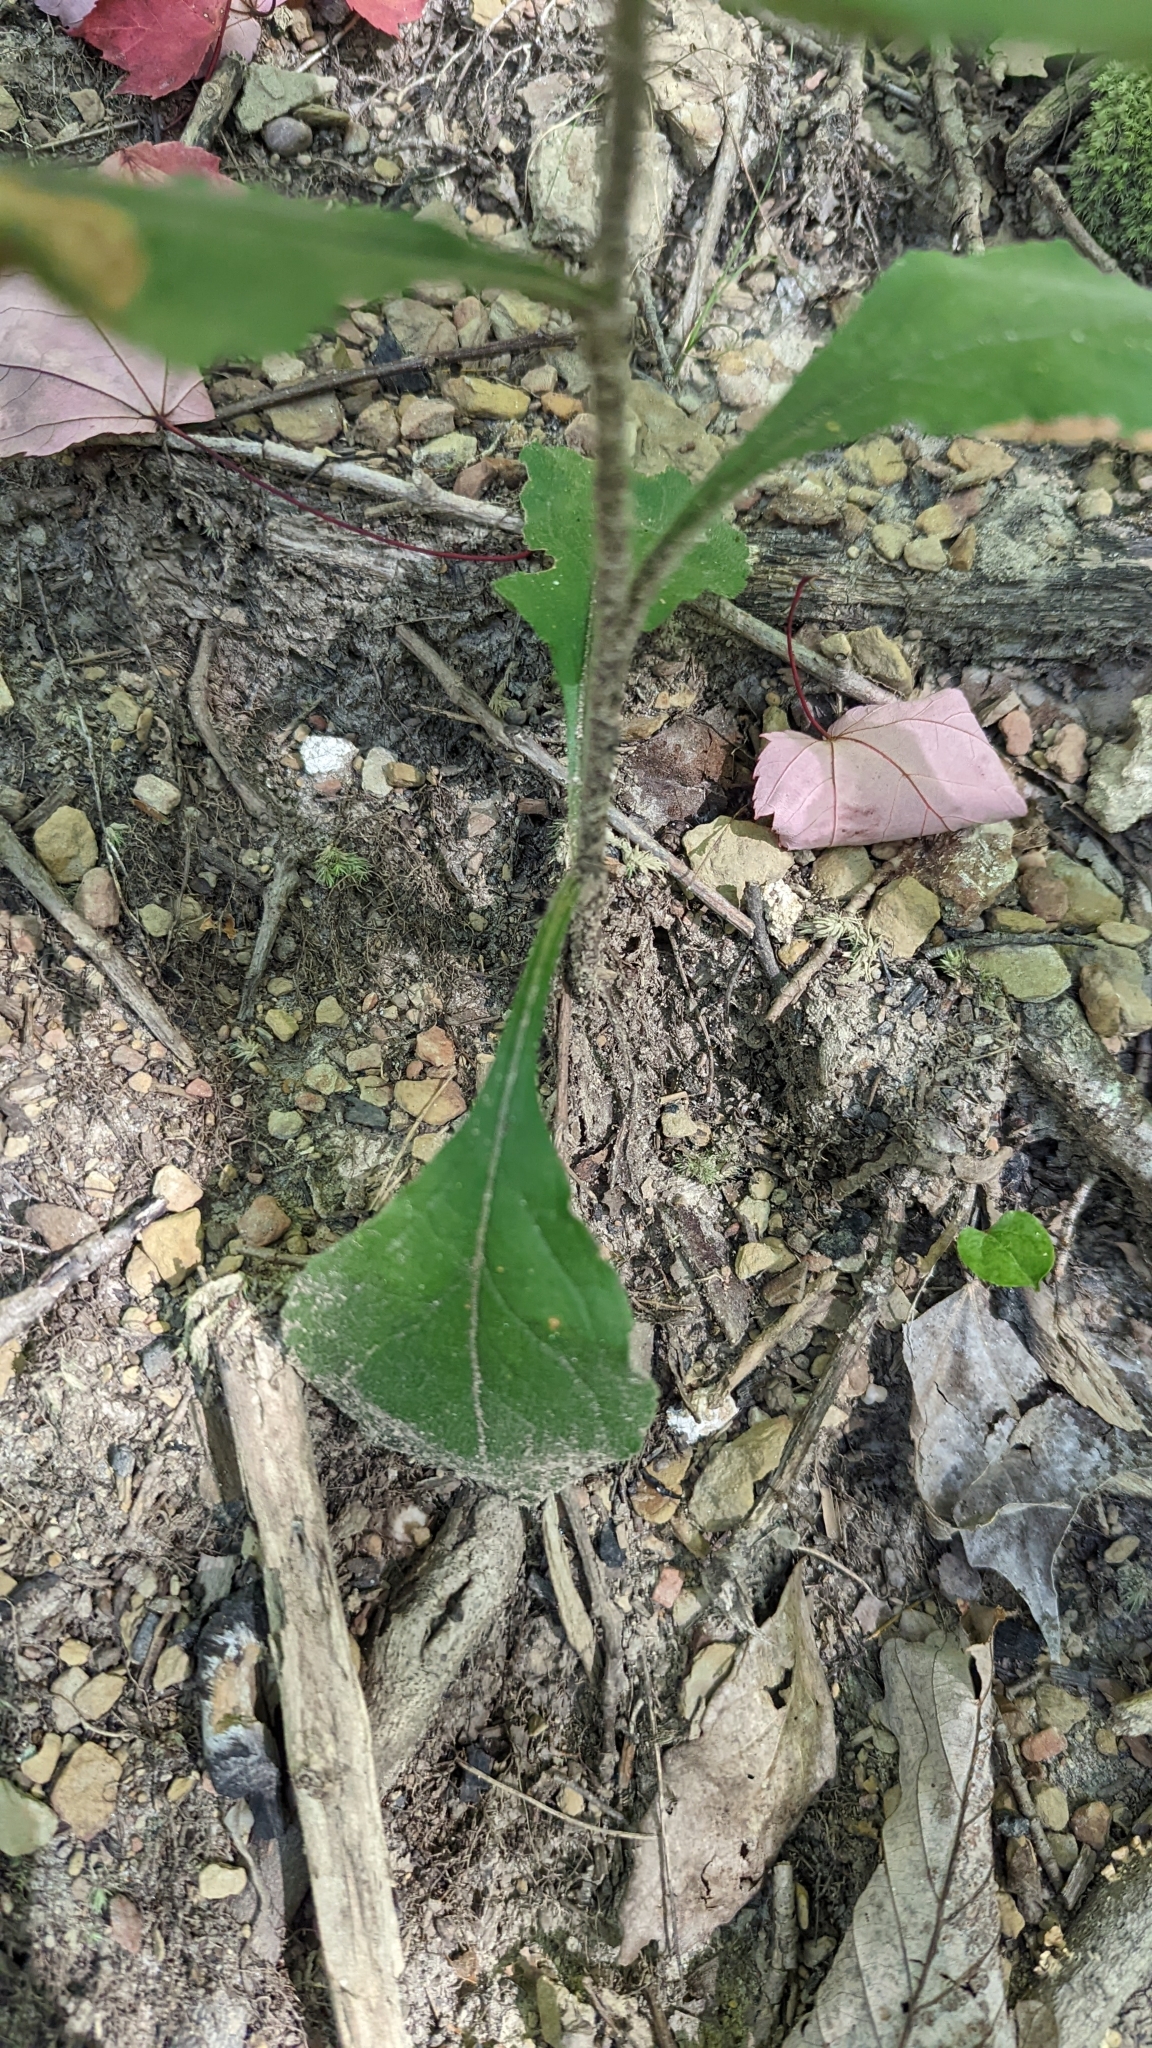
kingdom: Plantae
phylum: Tracheophyta
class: Magnoliopsida
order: Asterales
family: Asteraceae
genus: Solidago
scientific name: Solidago hispida
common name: Hairy goldenrod
